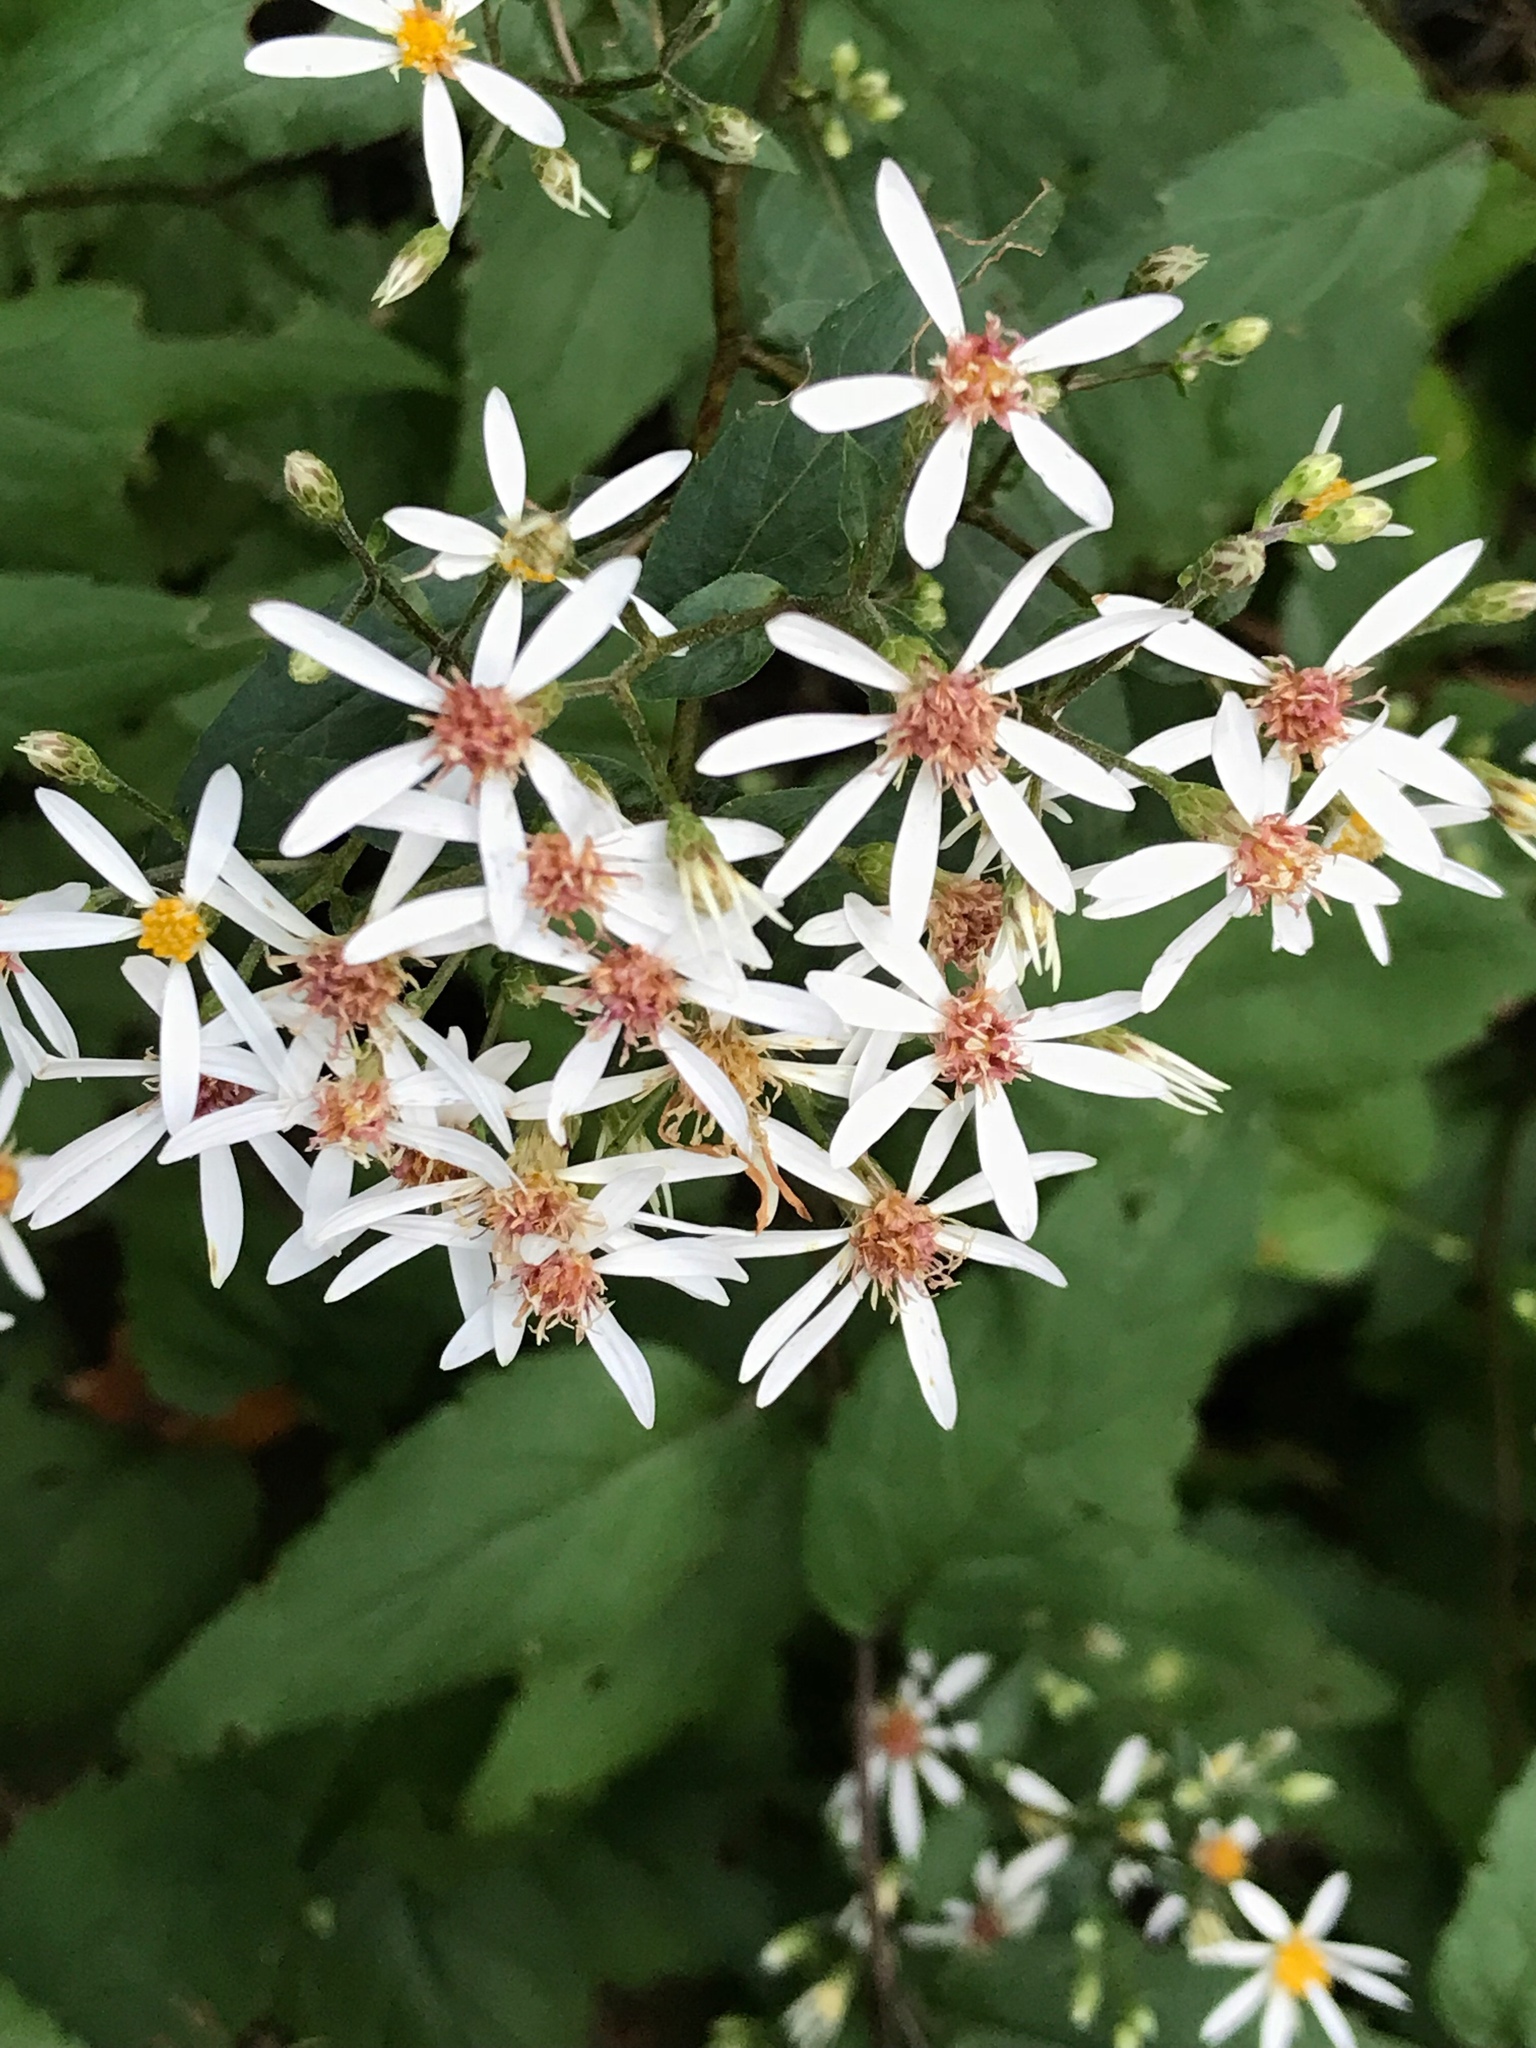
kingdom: Plantae
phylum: Tracheophyta
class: Magnoliopsida
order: Asterales
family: Asteraceae
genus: Eurybia
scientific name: Eurybia divaricata
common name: White wood aster
